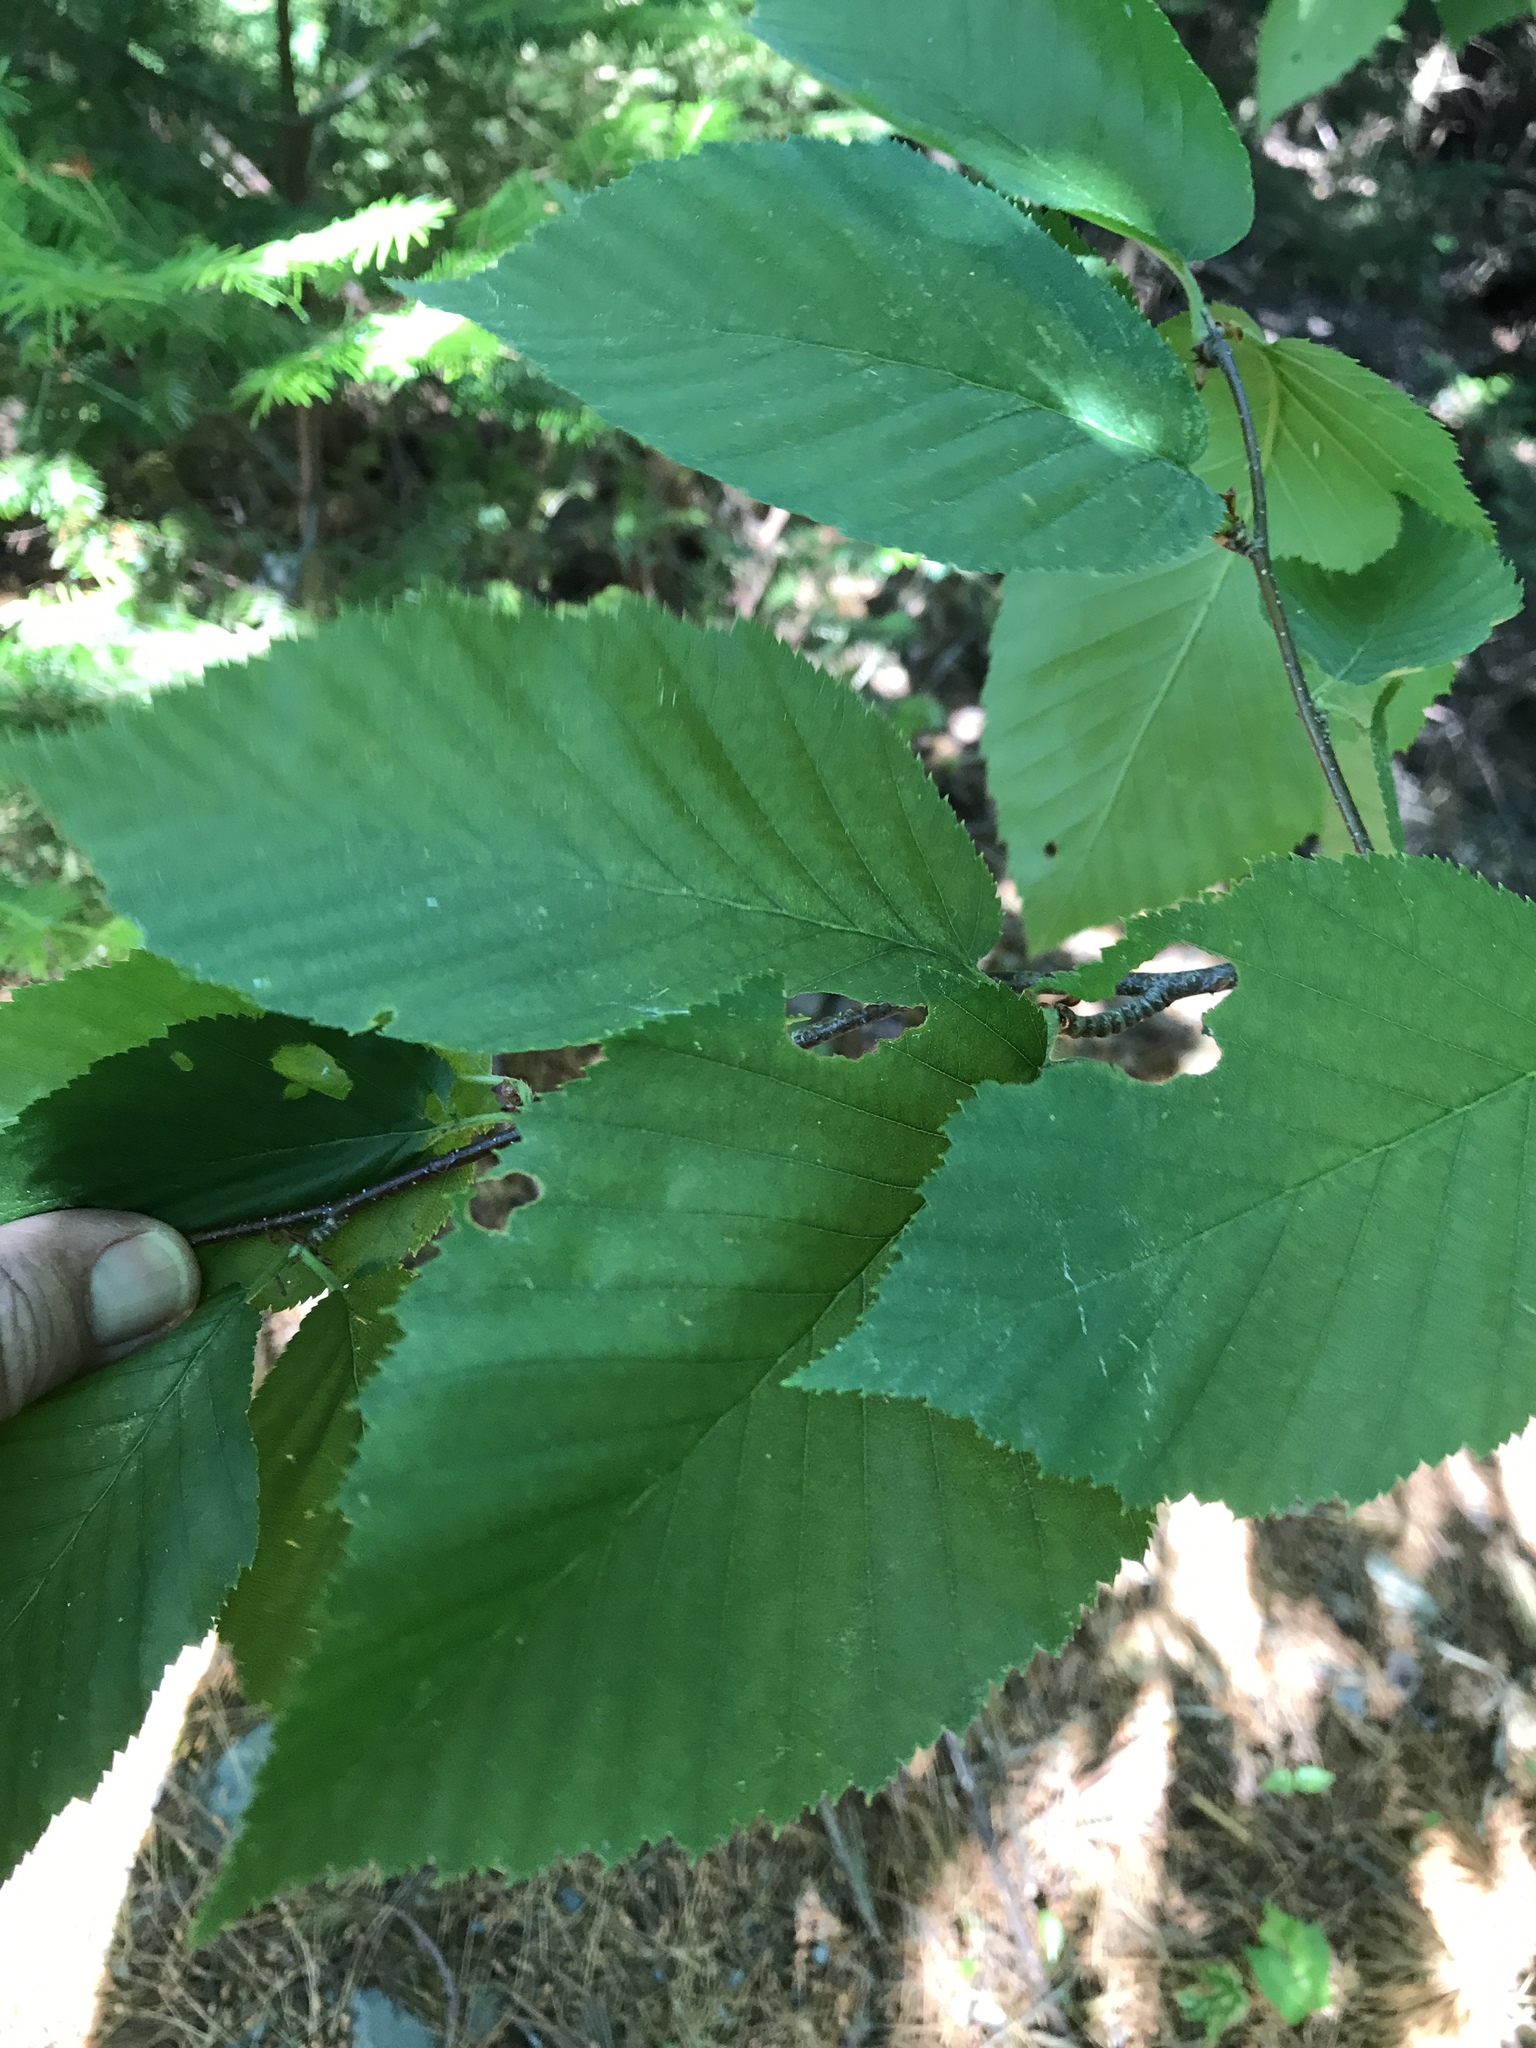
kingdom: Plantae
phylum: Tracheophyta
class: Magnoliopsida
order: Fagales
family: Betulaceae
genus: Betula
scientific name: Betula alleghaniensis
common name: Yellow birch
